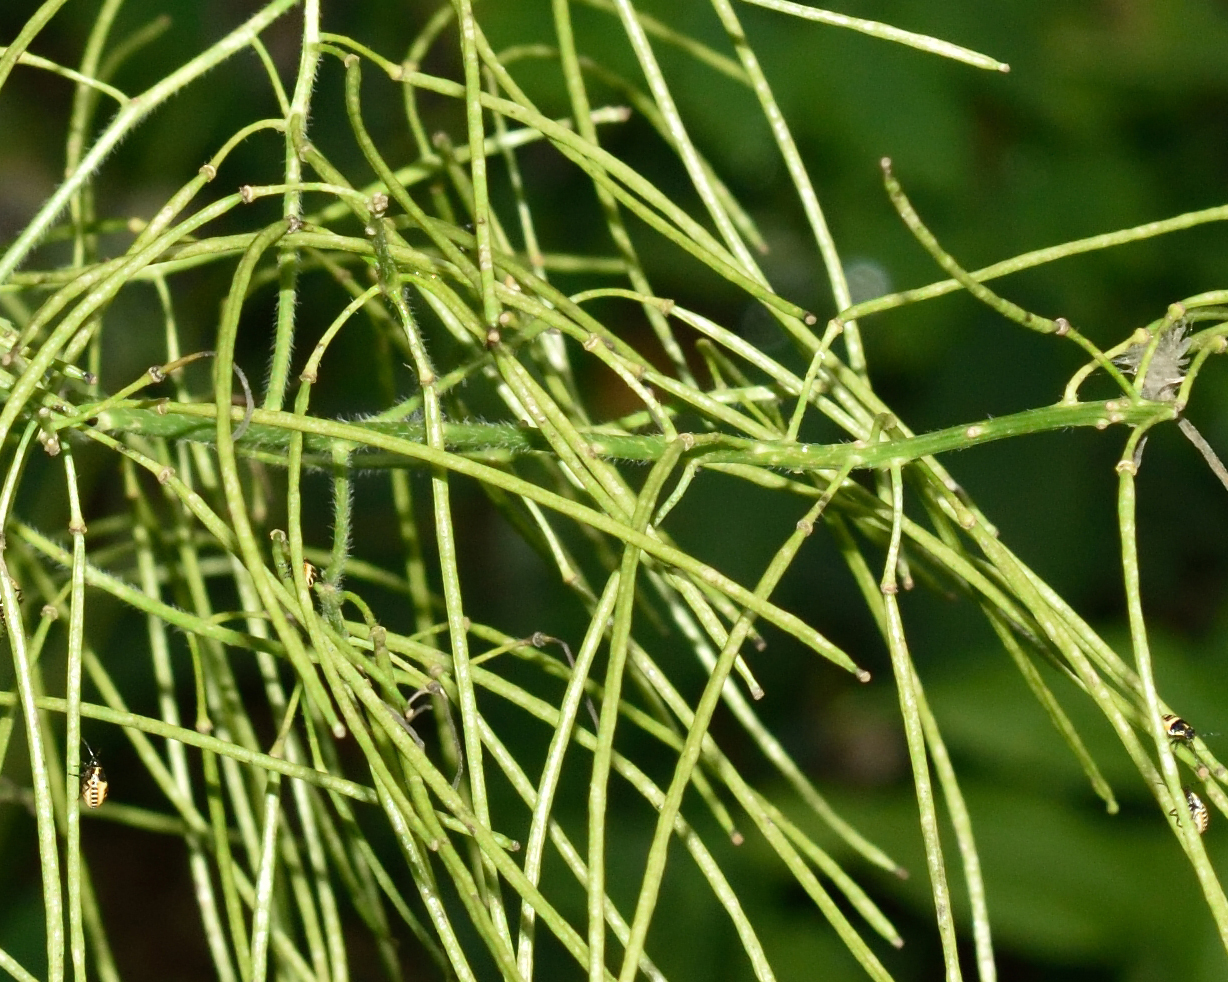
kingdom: Plantae
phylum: Tracheophyta
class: Magnoliopsida
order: Brassicales
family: Brassicaceae
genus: Sisymbrium
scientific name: Sisymbrium strictissimum
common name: Perennial rocket
